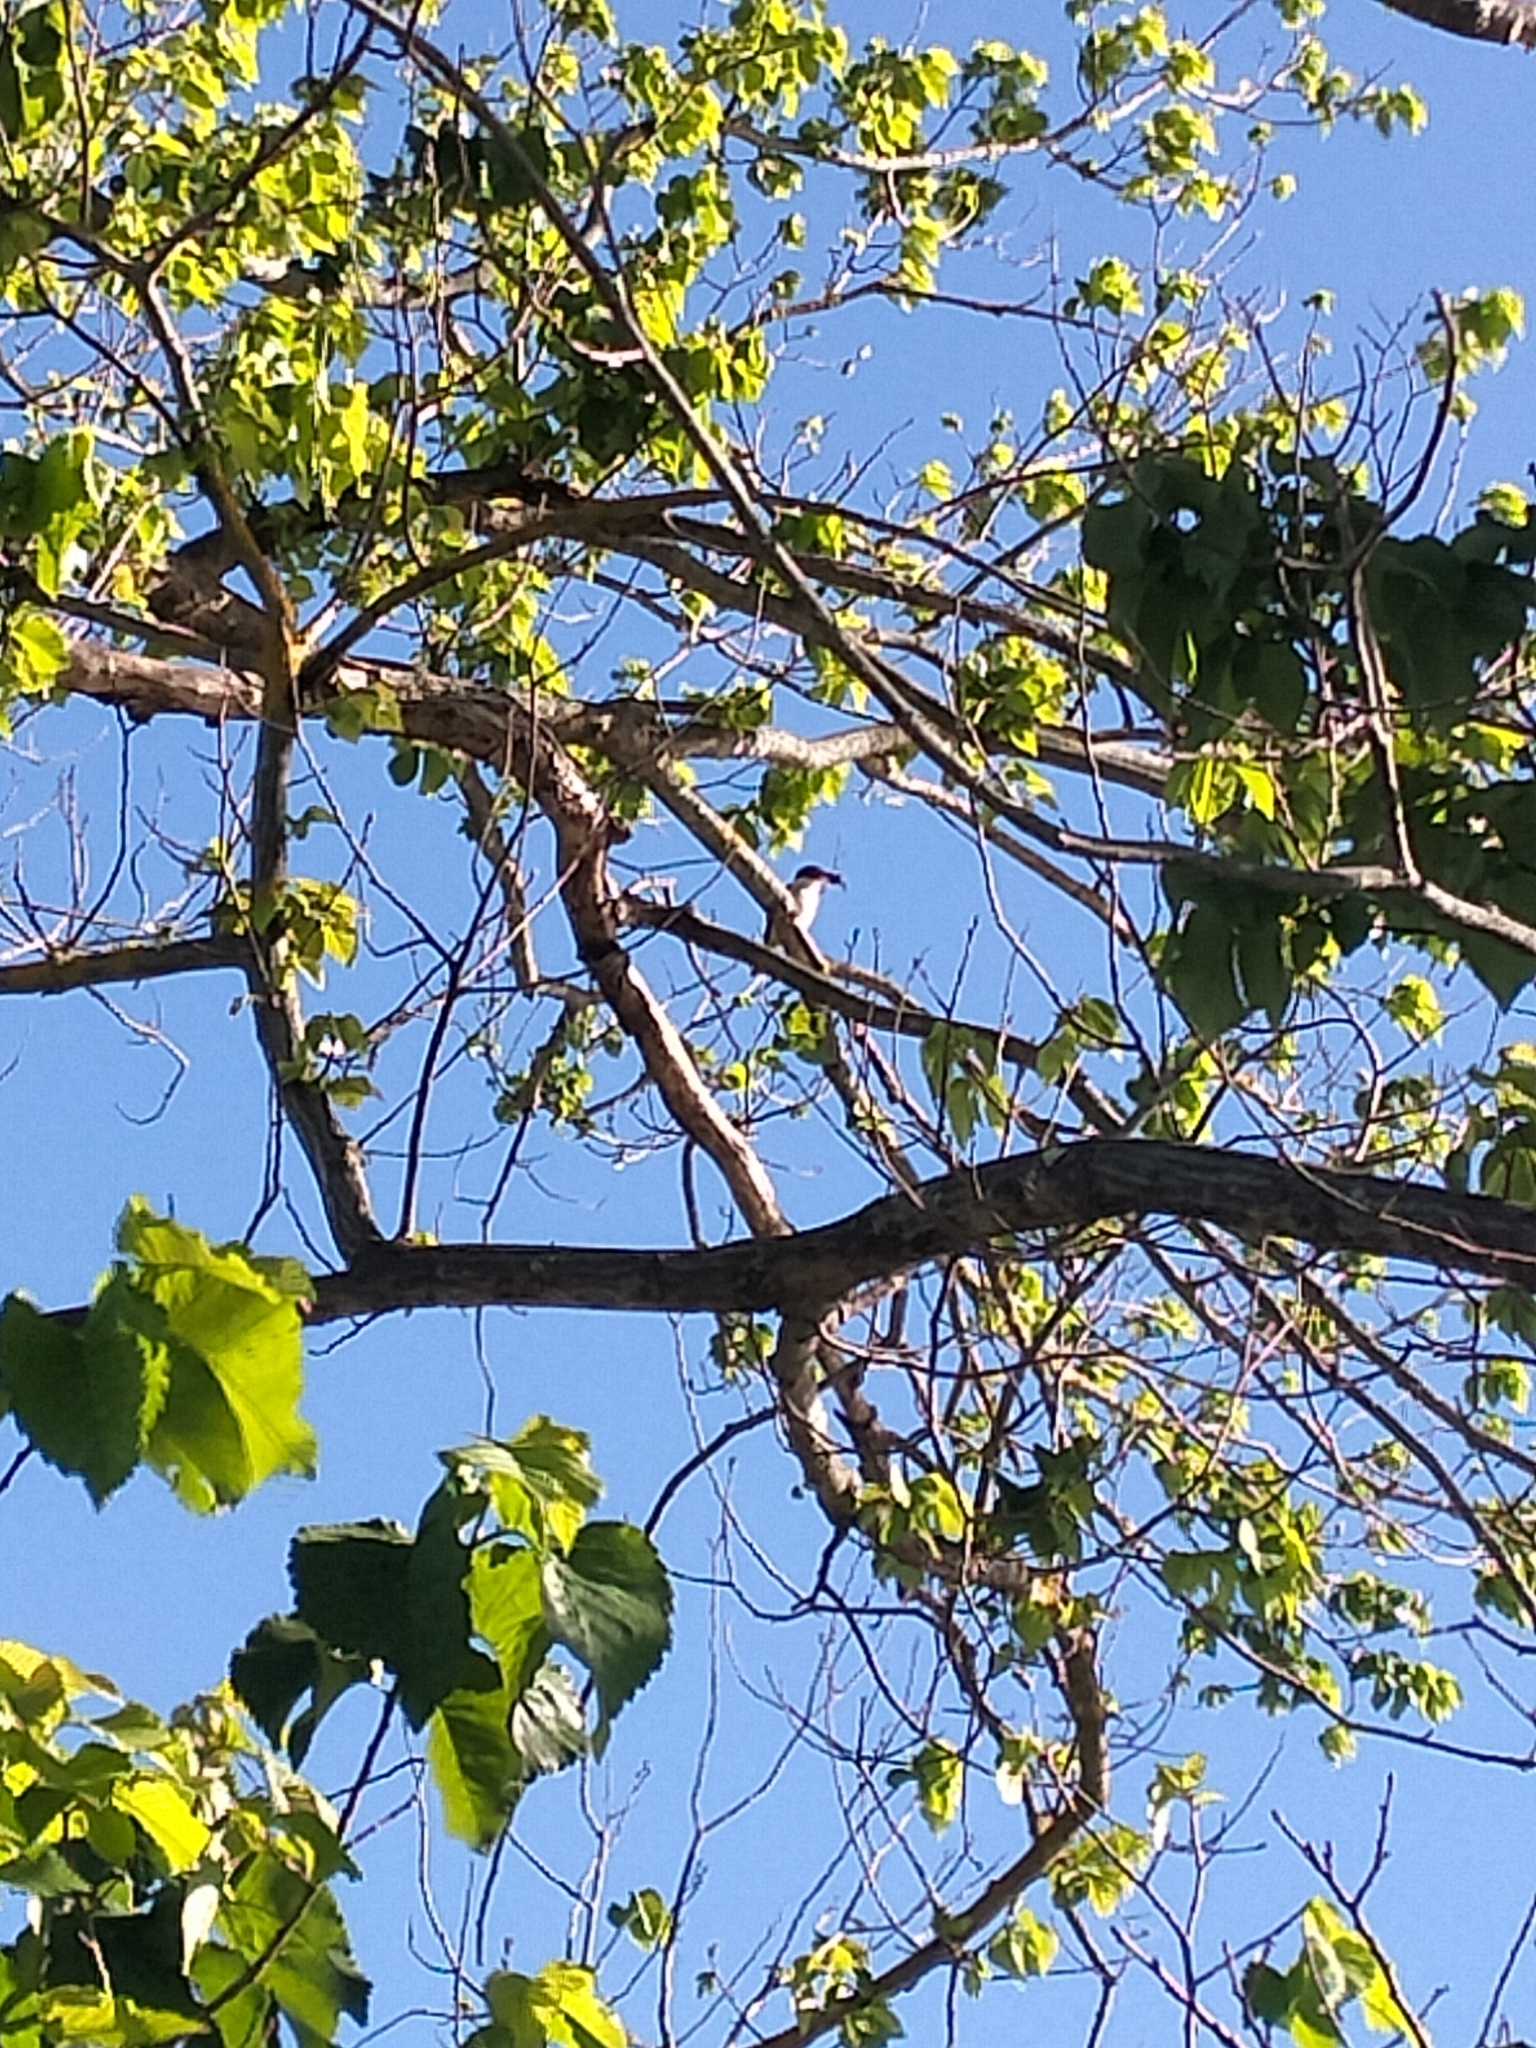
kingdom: Animalia
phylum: Chordata
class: Aves
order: Coraciiformes
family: Alcedinidae
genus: Todiramphus
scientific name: Todiramphus sanctus
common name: Sacred kingfisher
